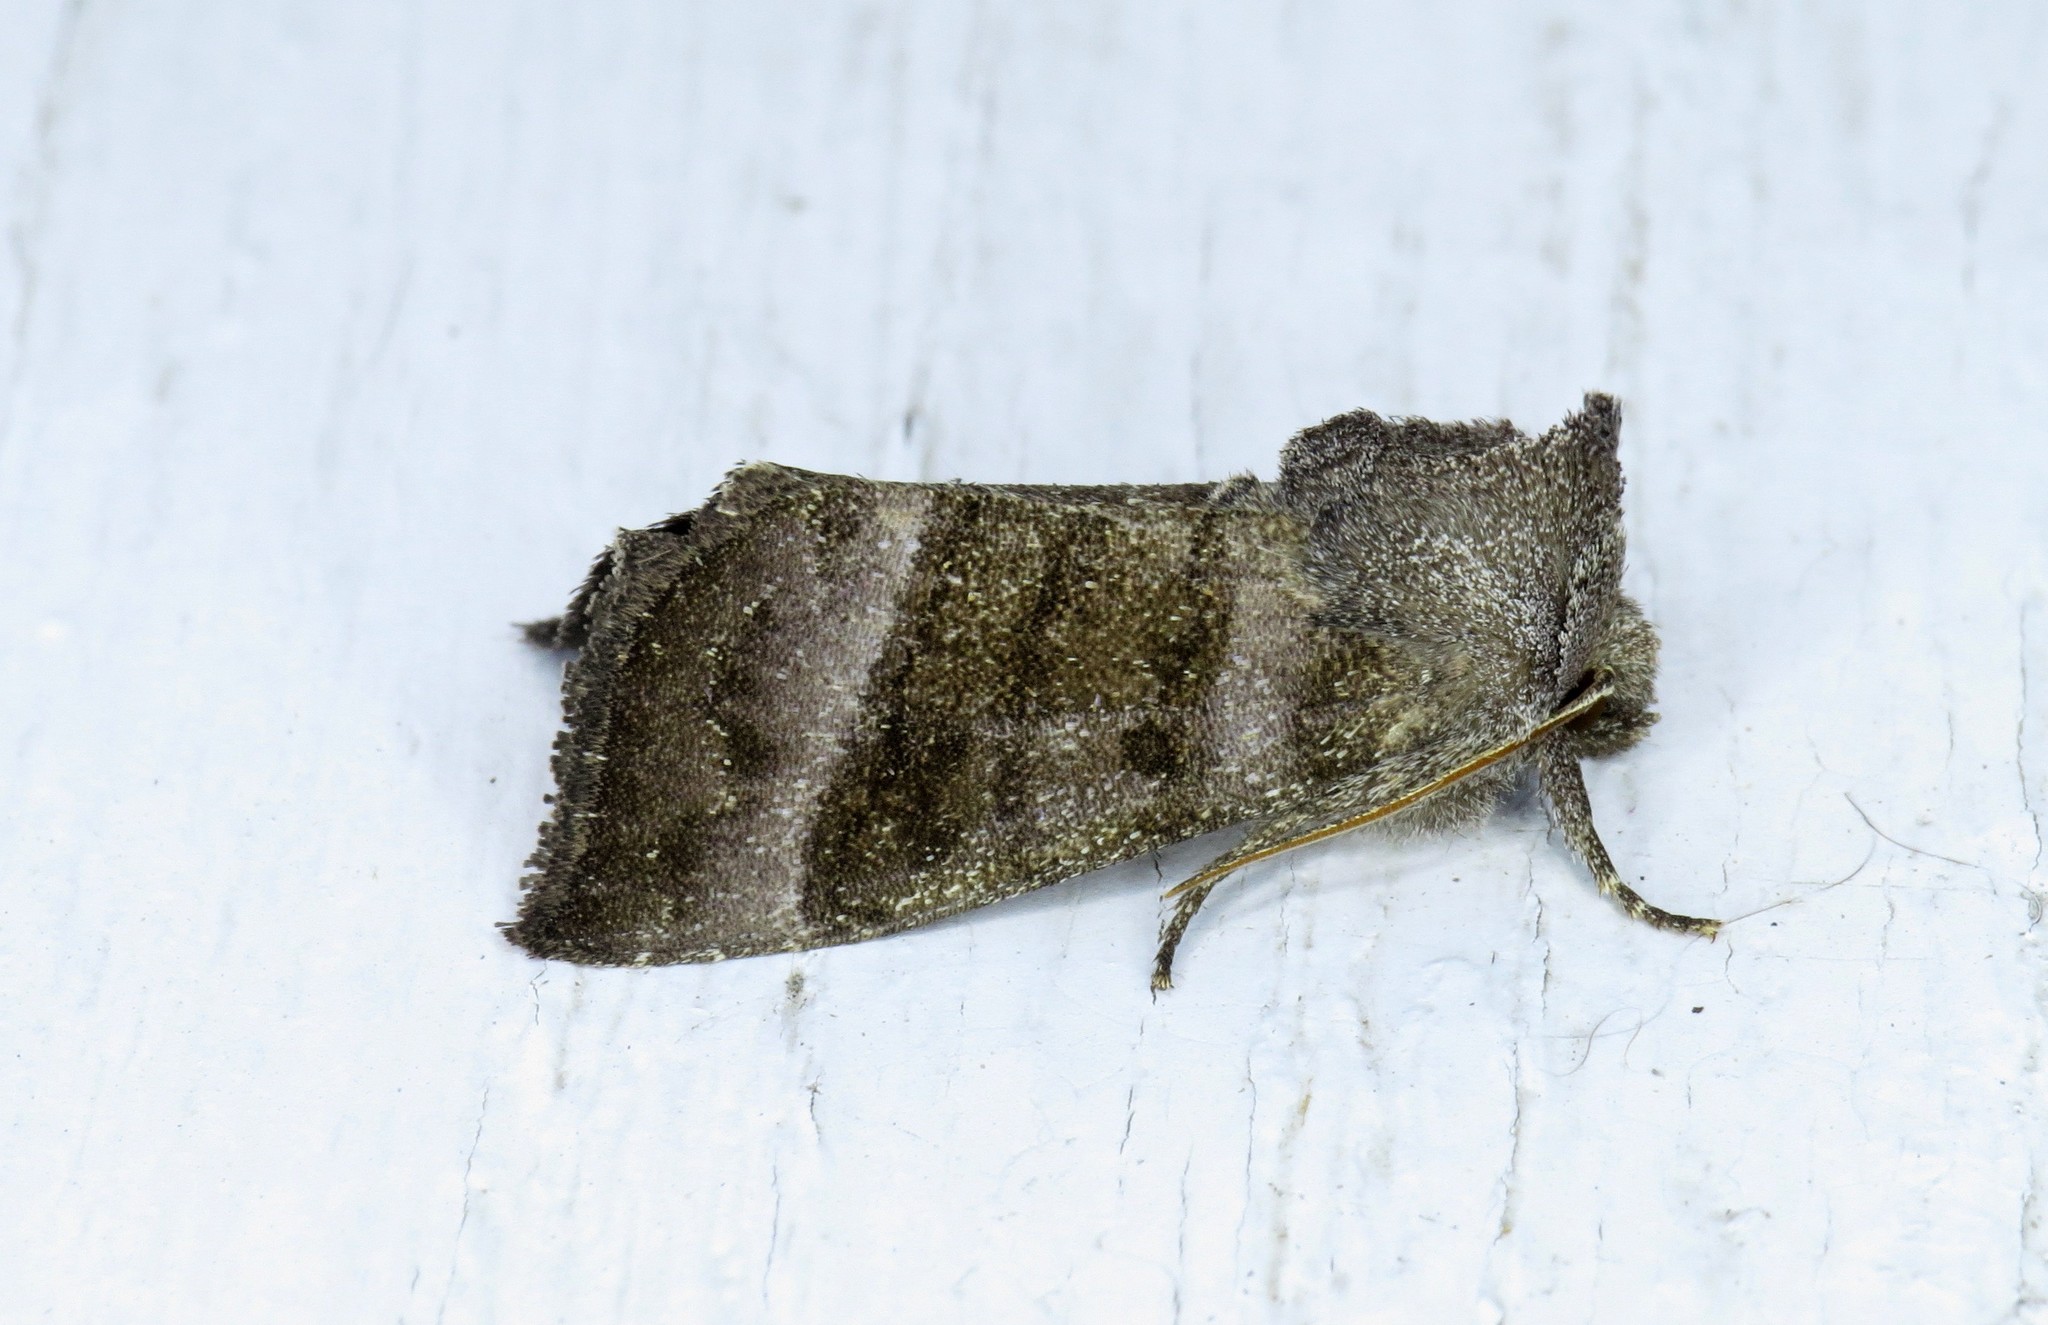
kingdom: Animalia
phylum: Arthropoda
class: Insecta
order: Lepidoptera
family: Noctuidae
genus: Papaipema
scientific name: Papaipema eupatorii
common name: Eupatorium borer moth
